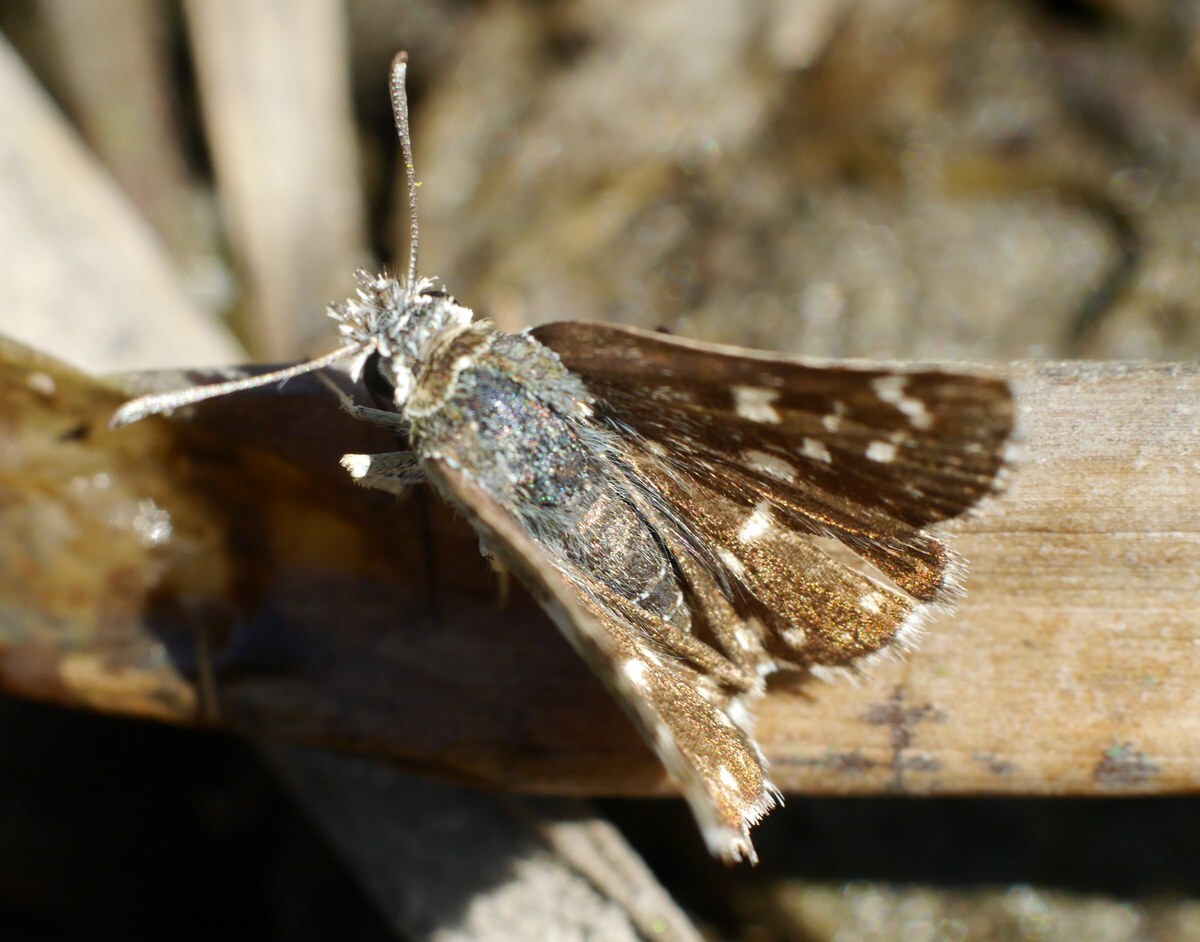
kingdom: Animalia
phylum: Arthropoda
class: Insecta
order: Lepidoptera
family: Hesperiidae
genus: Spialia
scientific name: Spialia sertorius
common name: Red underwing skipper
